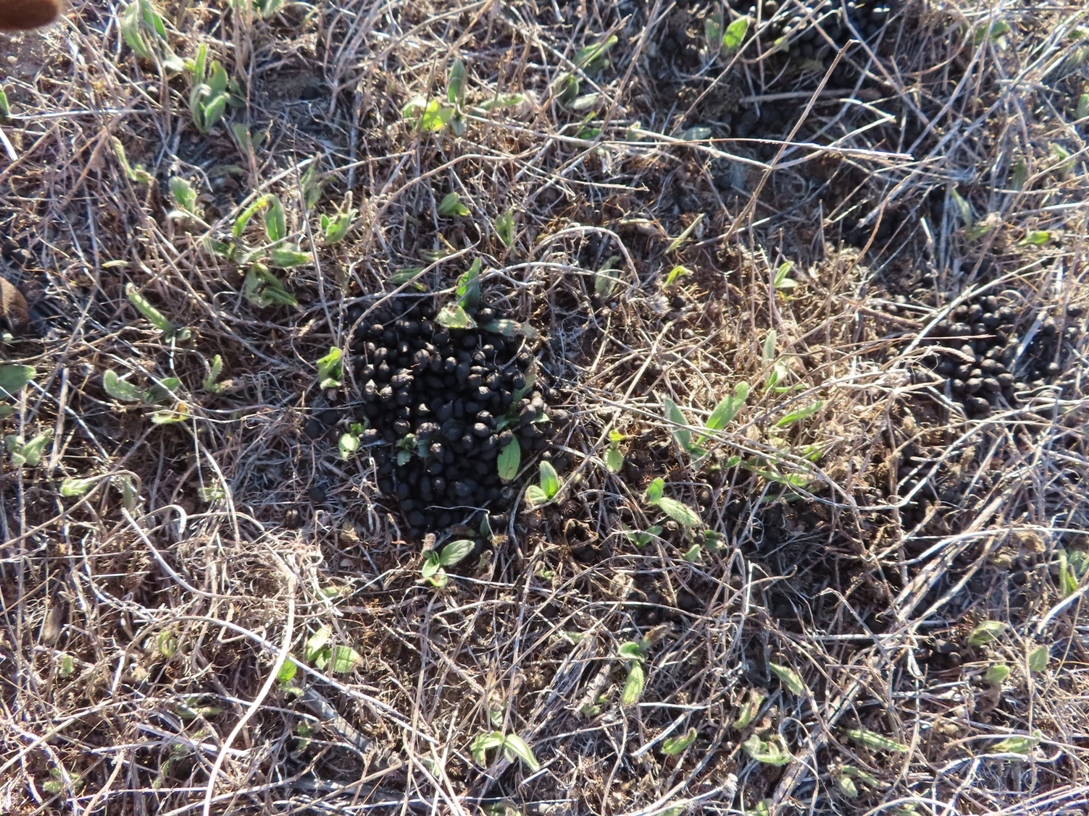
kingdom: Animalia
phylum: Chordata
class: Mammalia
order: Artiodactyla
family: Bovidae
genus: Antidorcas
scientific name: Antidorcas marsupialis
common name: Springbok
